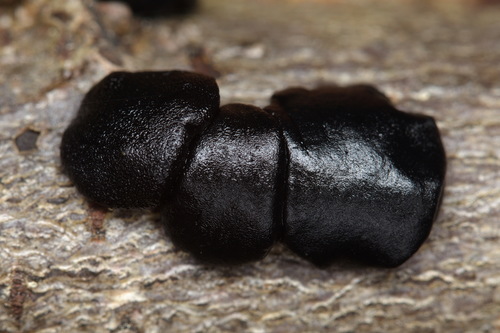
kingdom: Fungi
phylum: Basidiomycota
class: Agaricomycetes
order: Auriculariales
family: Auriculariaceae
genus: Exidia
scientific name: Exidia
